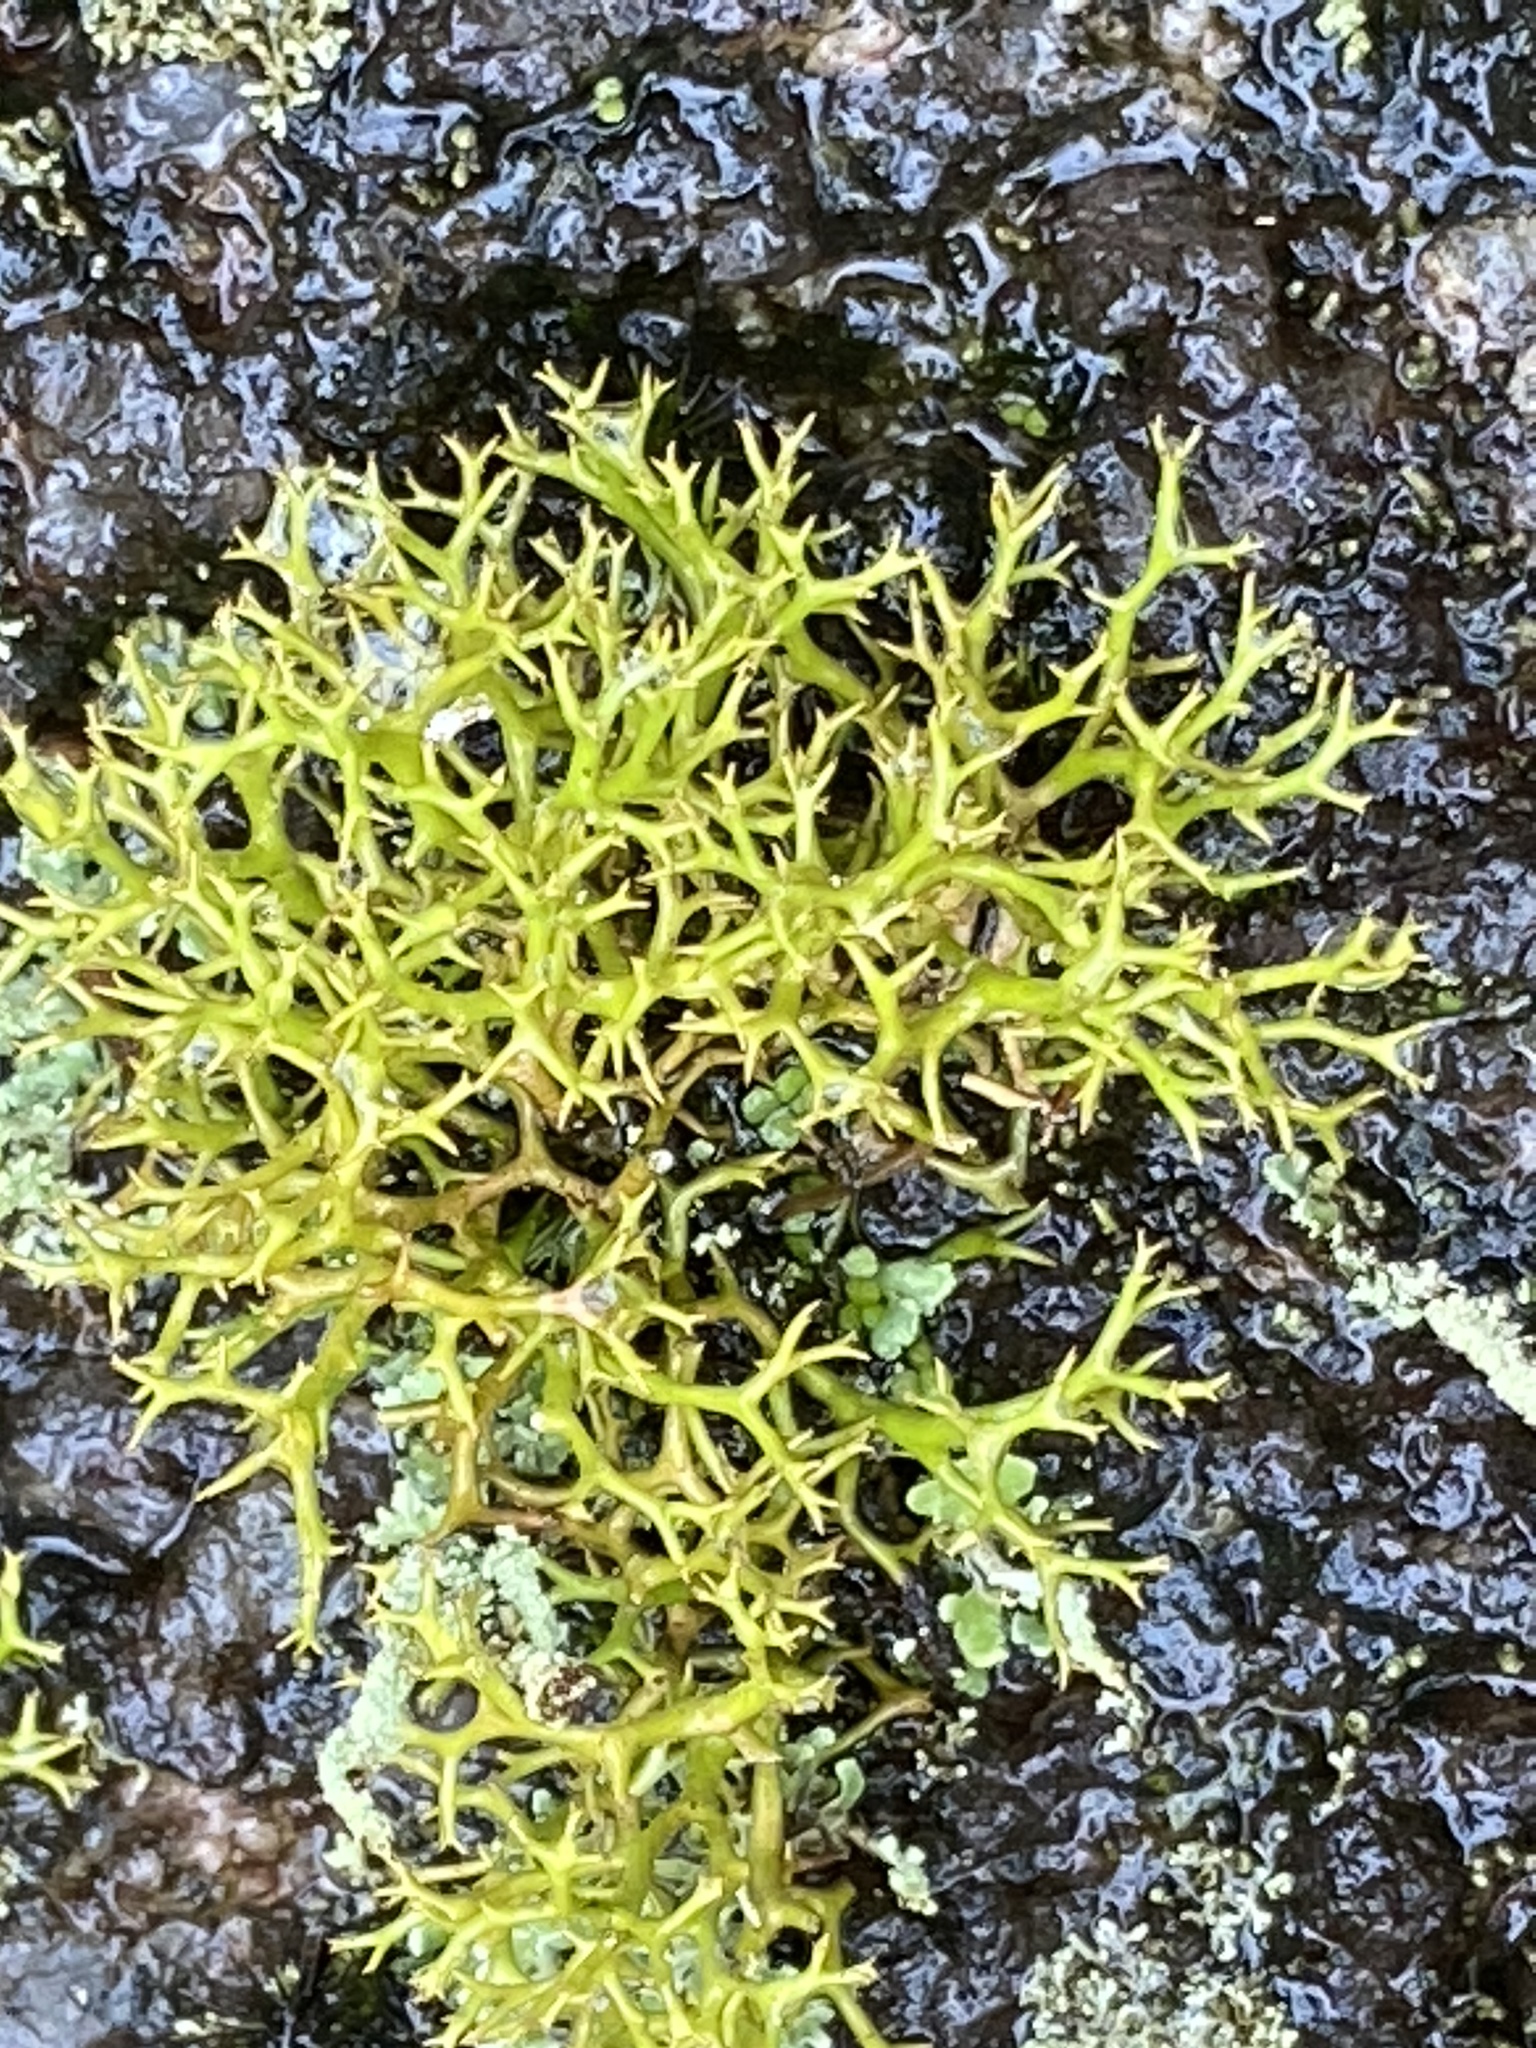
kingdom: Fungi
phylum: Ascomycota
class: Lecanoromycetes
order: Lecanorales
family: Cladoniaceae
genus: Cladia
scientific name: Cladia aggregata
